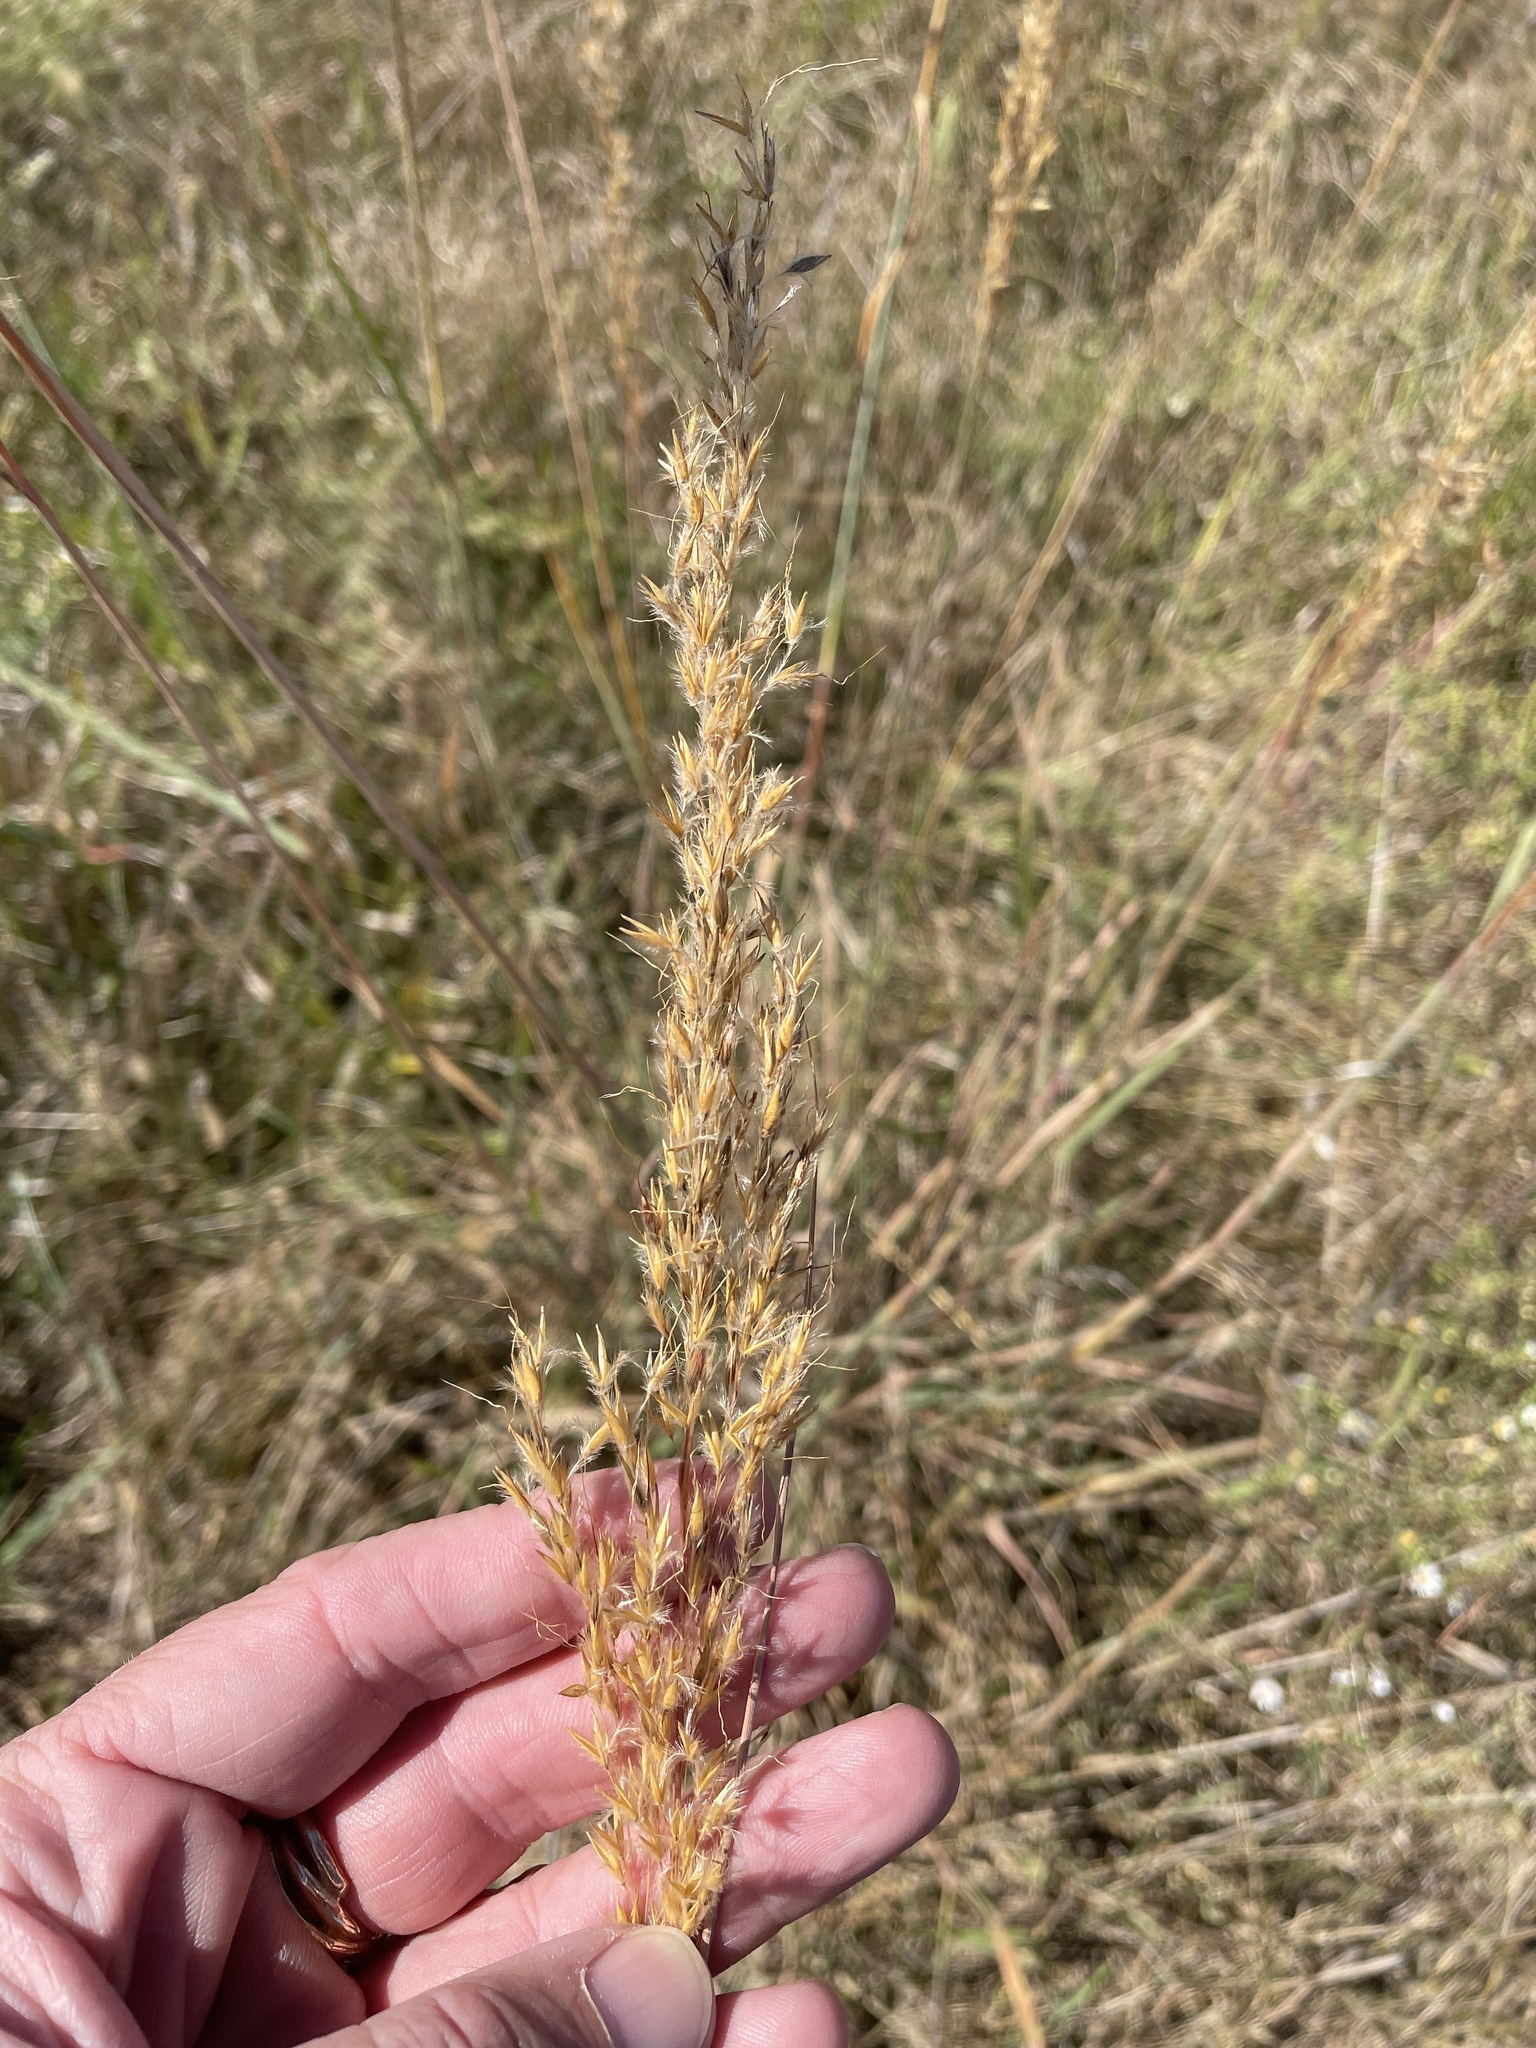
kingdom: Plantae
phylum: Tracheophyta
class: Liliopsida
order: Poales
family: Poaceae
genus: Sorghastrum
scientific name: Sorghastrum nutans
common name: Indian grass
